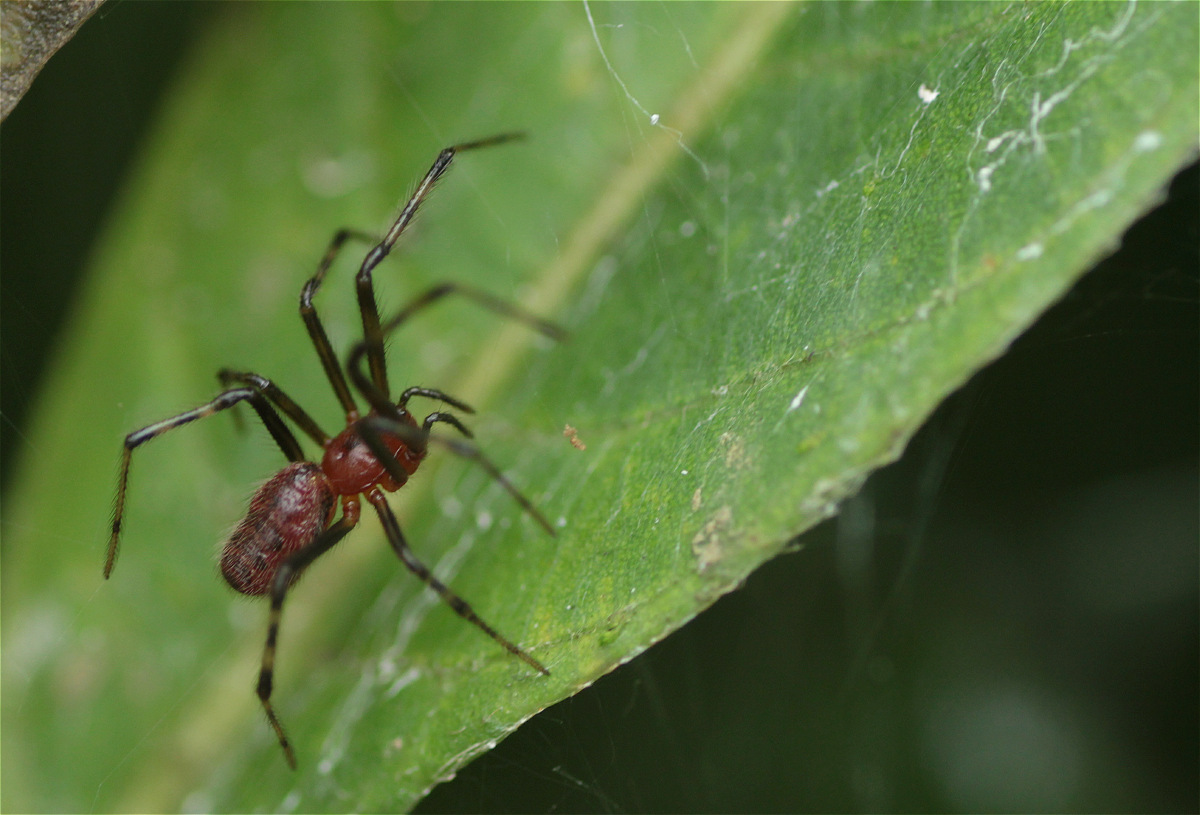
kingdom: Animalia
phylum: Arthropoda
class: Arachnida
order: Araneae
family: Theridiidae
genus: Anelosimus
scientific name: Anelosimus eximius
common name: Cobweb spiders
